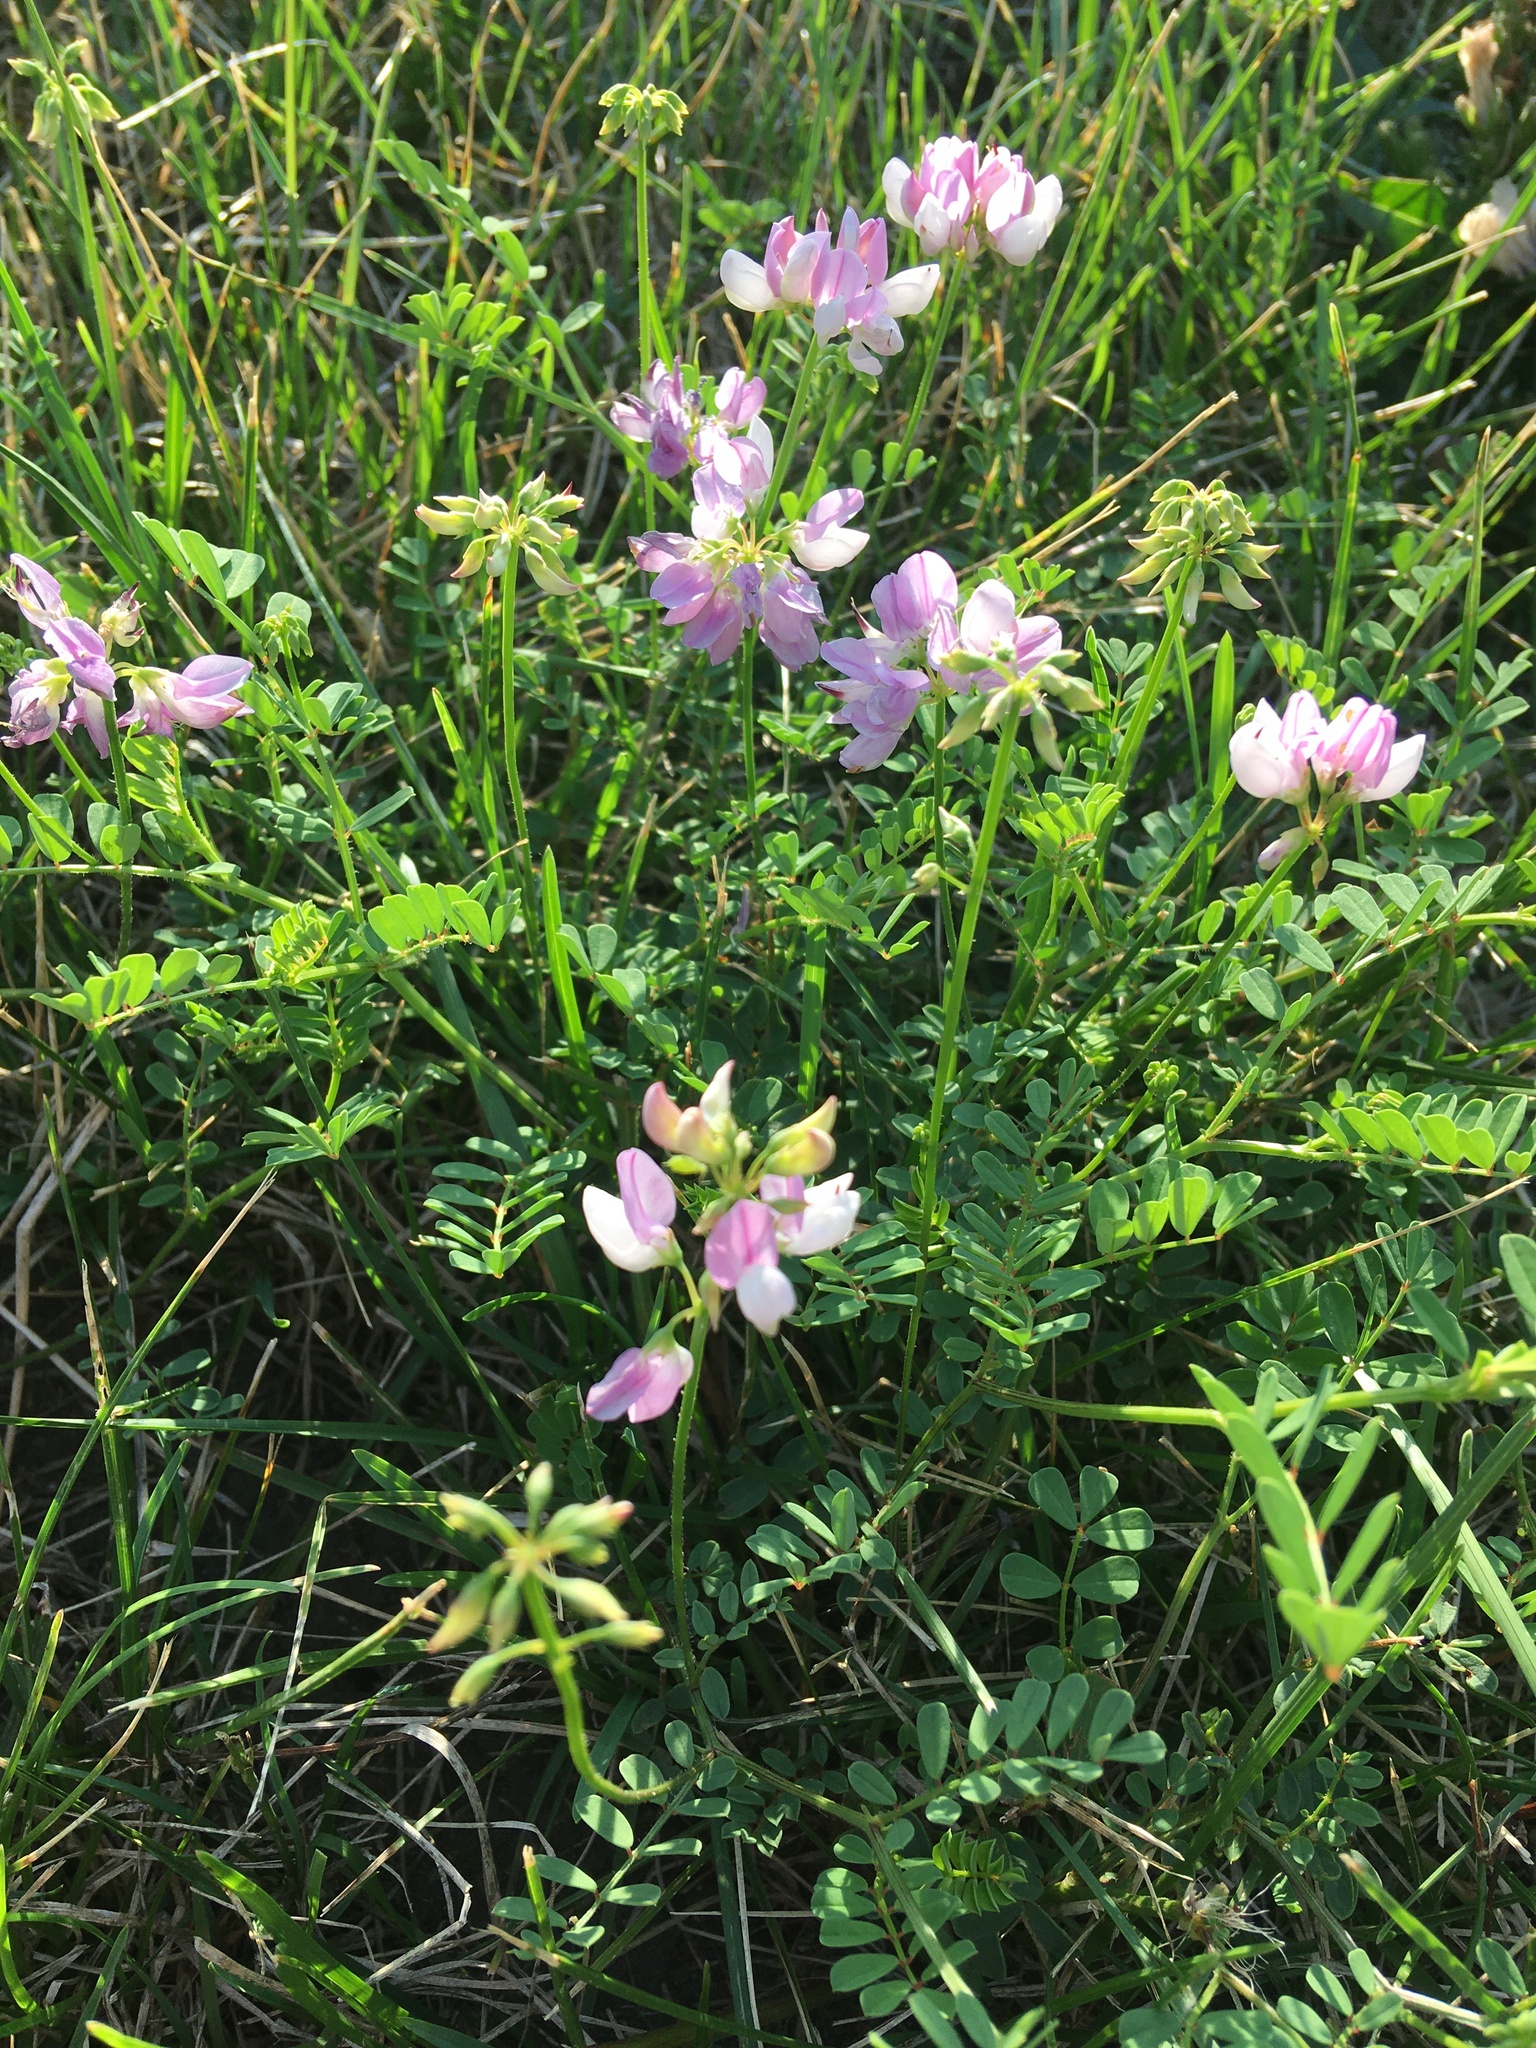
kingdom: Plantae
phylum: Tracheophyta
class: Magnoliopsida
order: Fabales
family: Fabaceae
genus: Coronilla
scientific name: Coronilla varia
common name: Crownvetch
